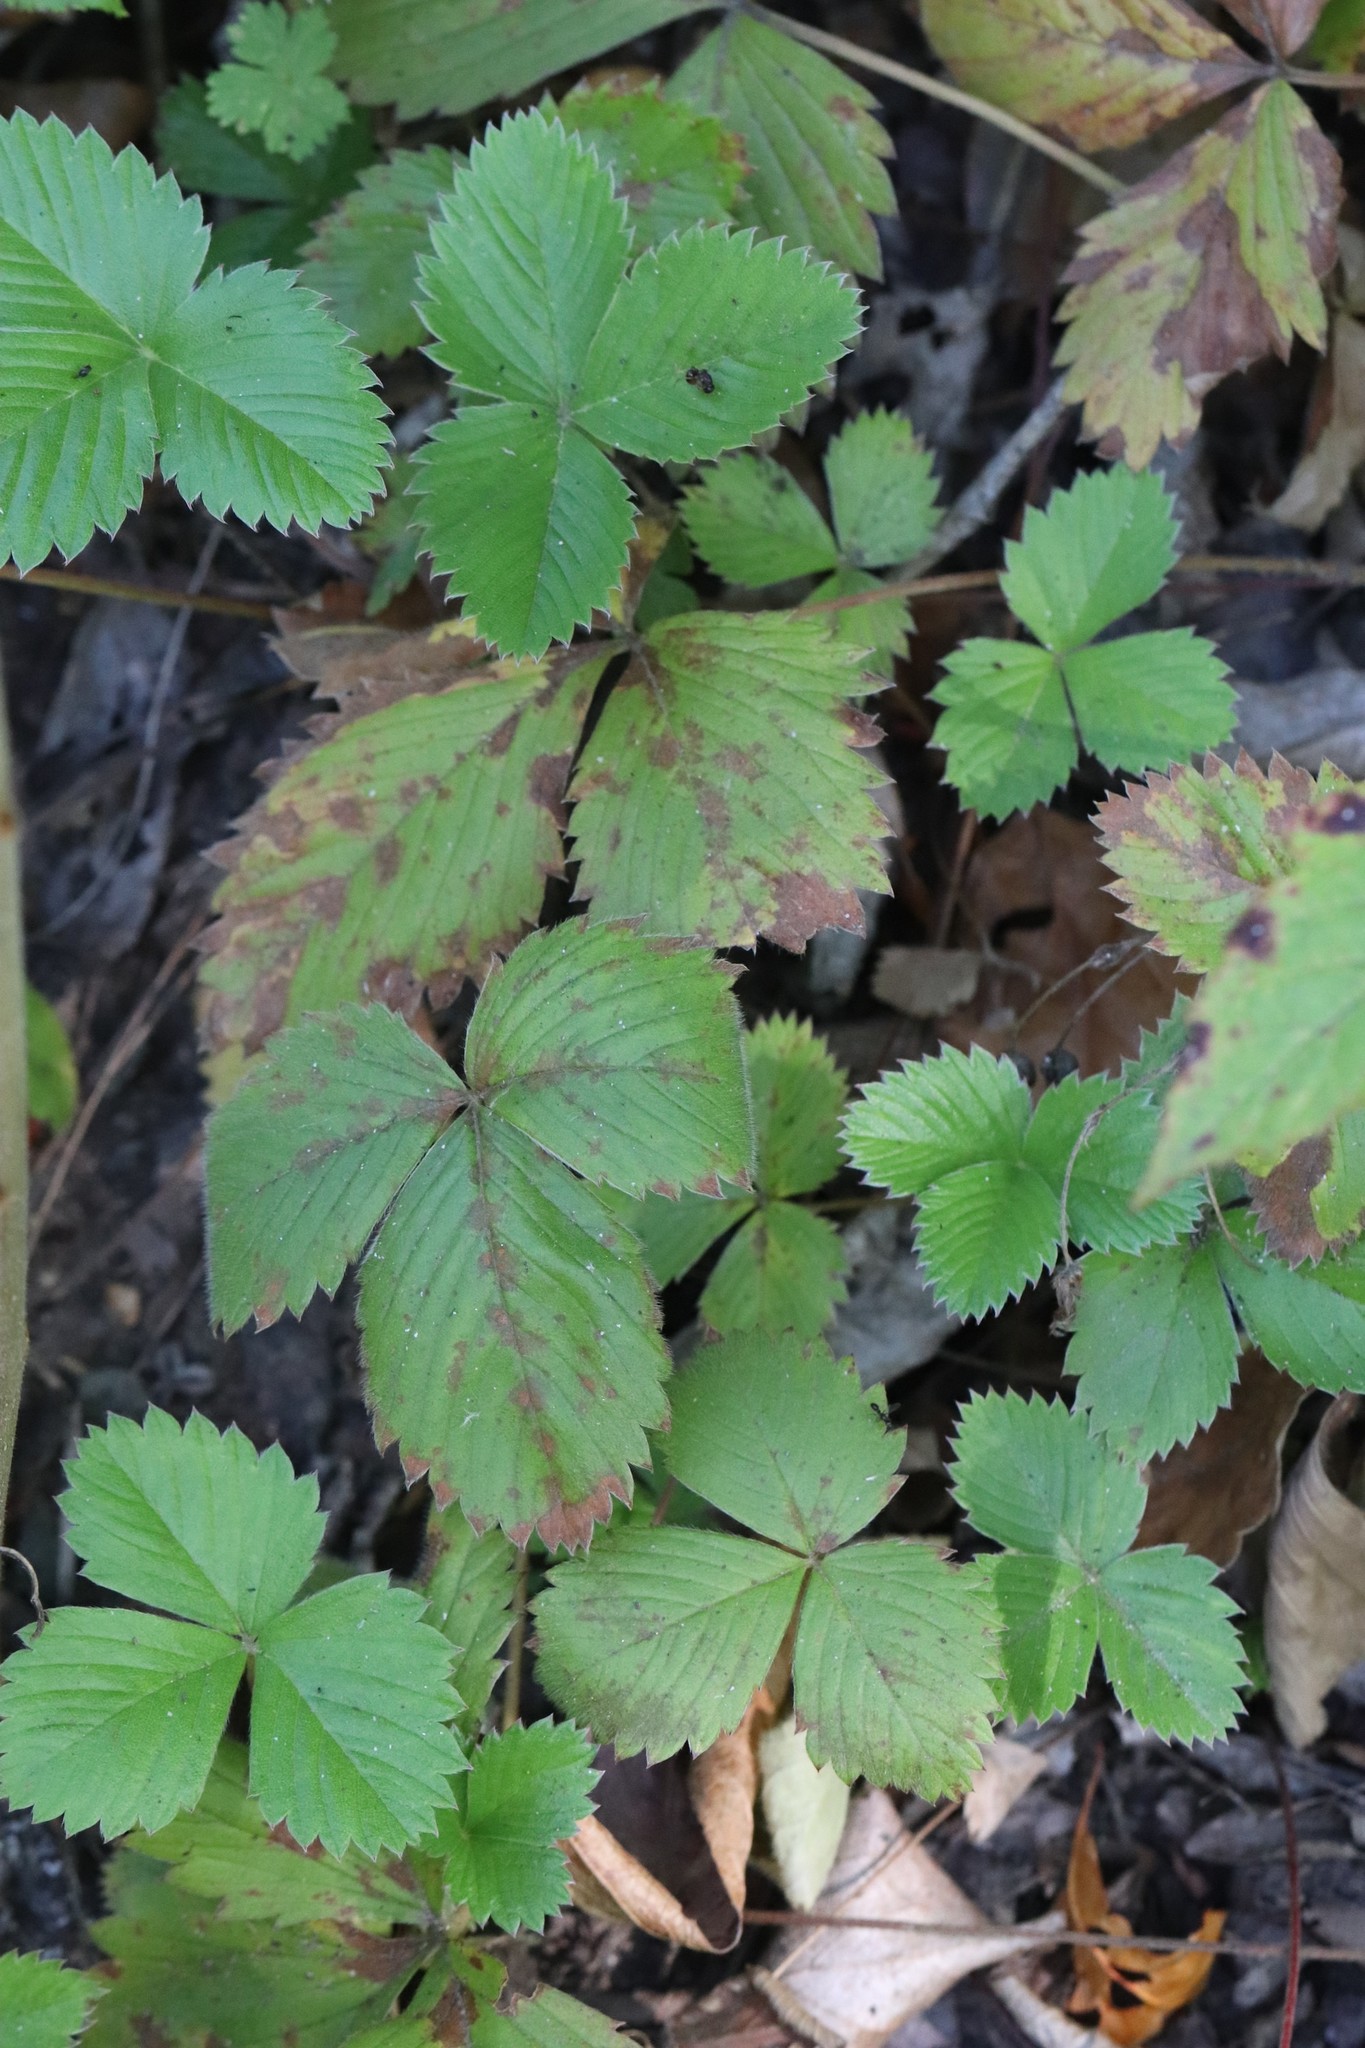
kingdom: Plantae
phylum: Tracheophyta
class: Magnoliopsida
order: Rosales
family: Rosaceae
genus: Fragaria
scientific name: Fragaria orientalis
